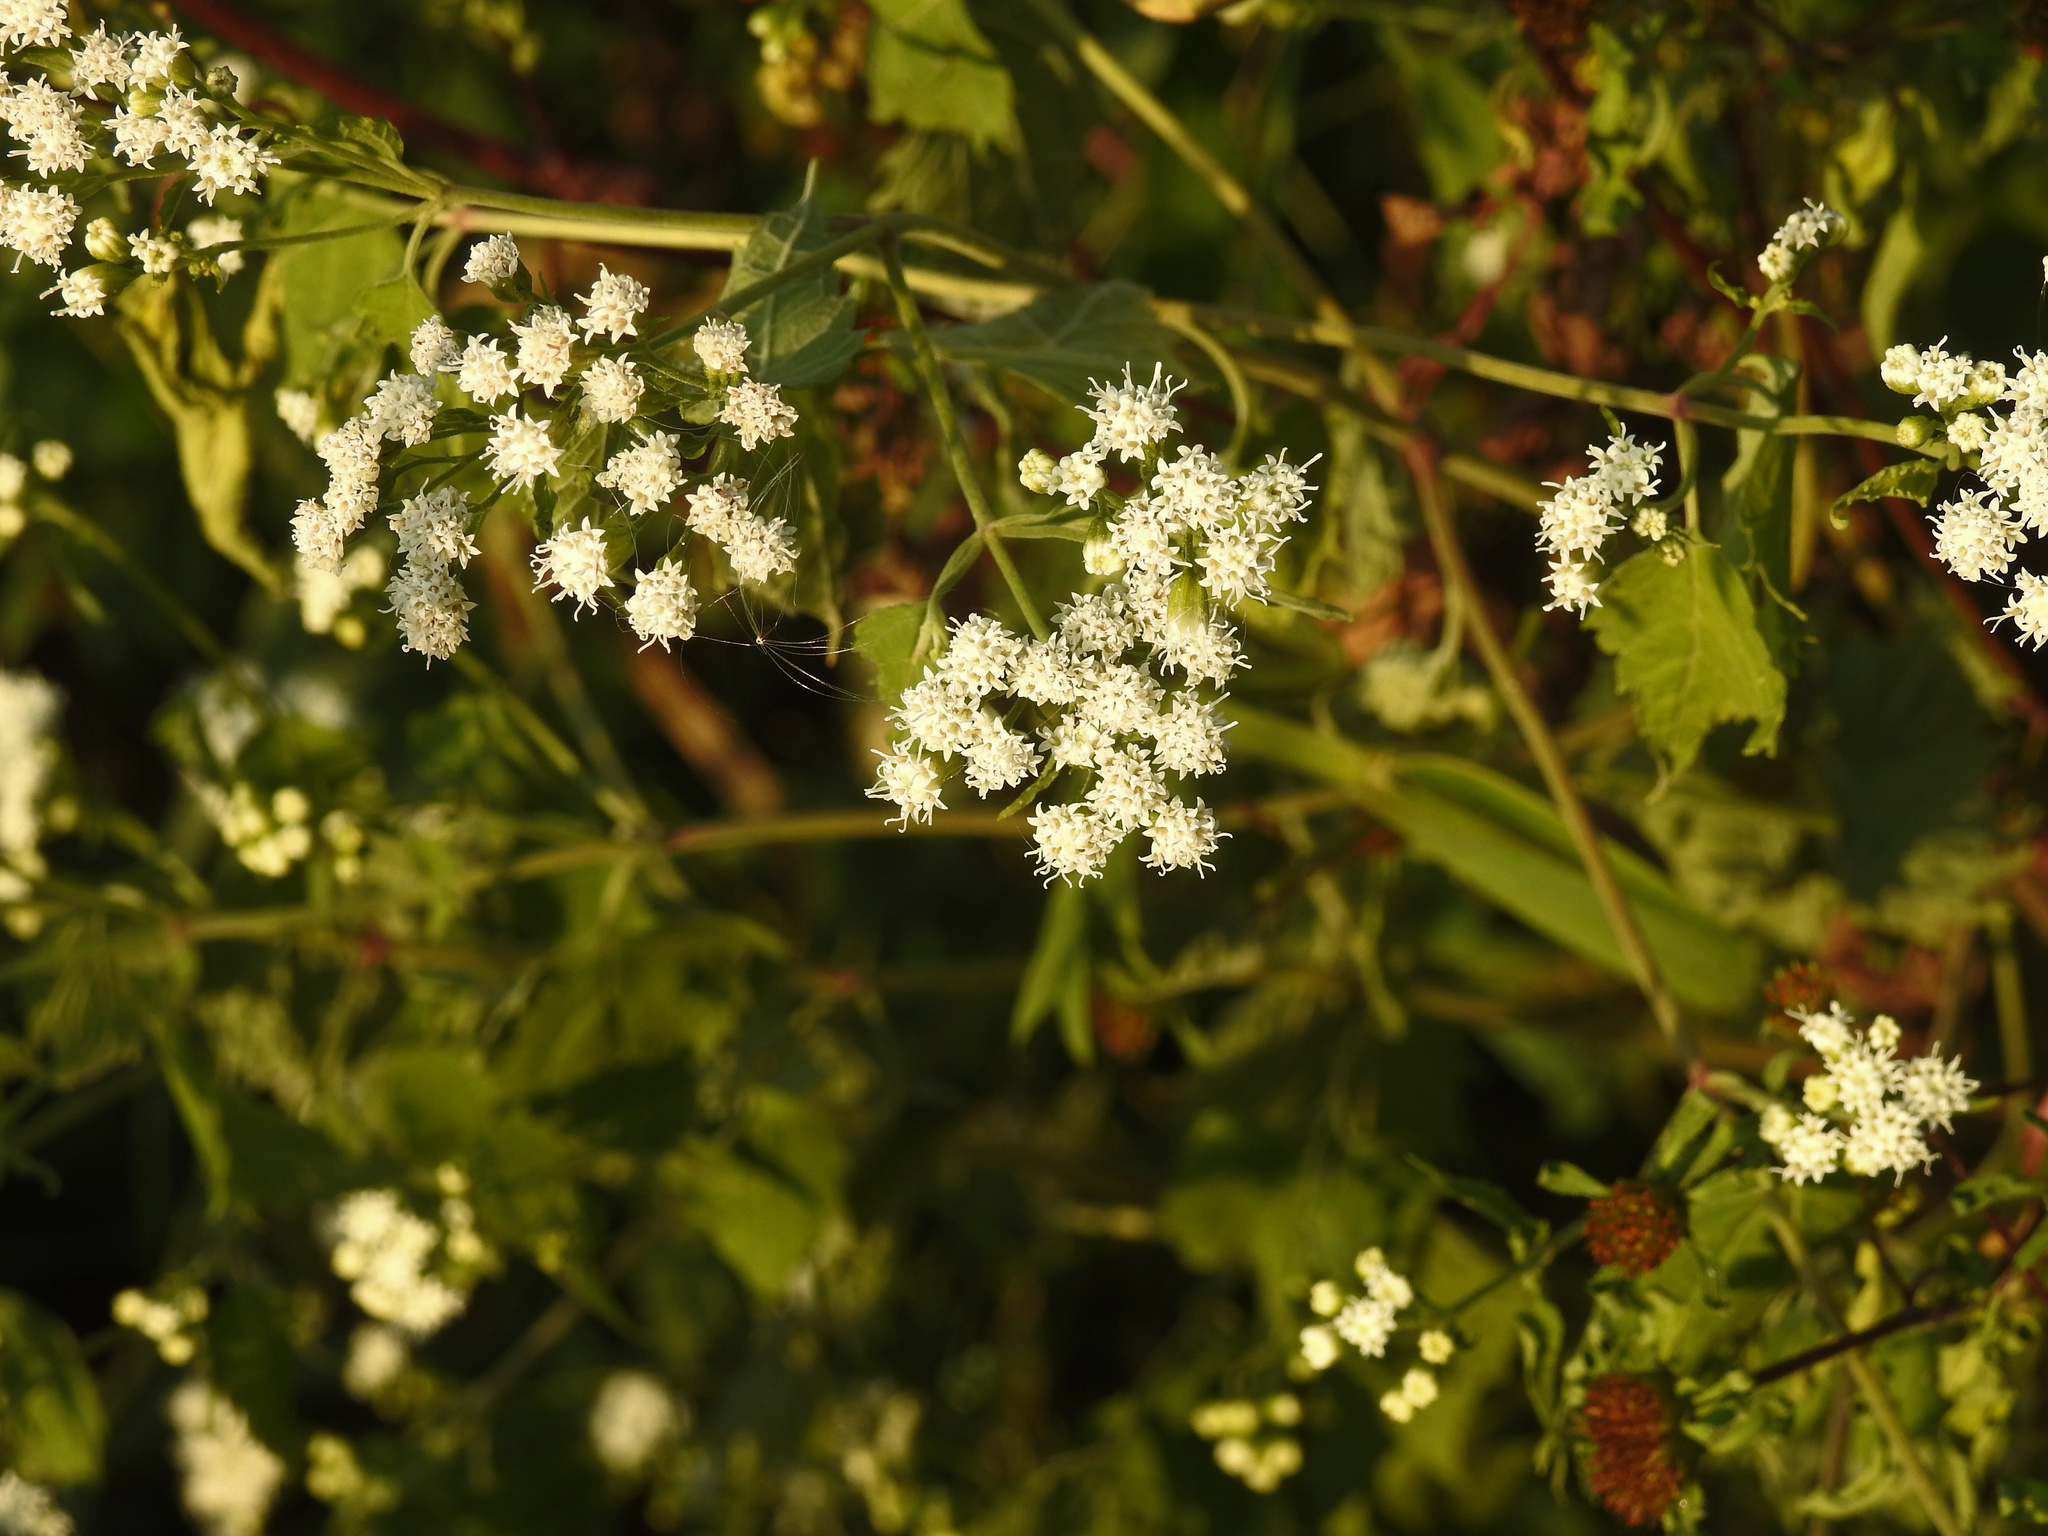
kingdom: Plantae
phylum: Tracheophyta
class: Magnoliopsida
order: Asterales
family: Asteraceae
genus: Ageratina
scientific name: Ageratina altissima
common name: White snakeroot
